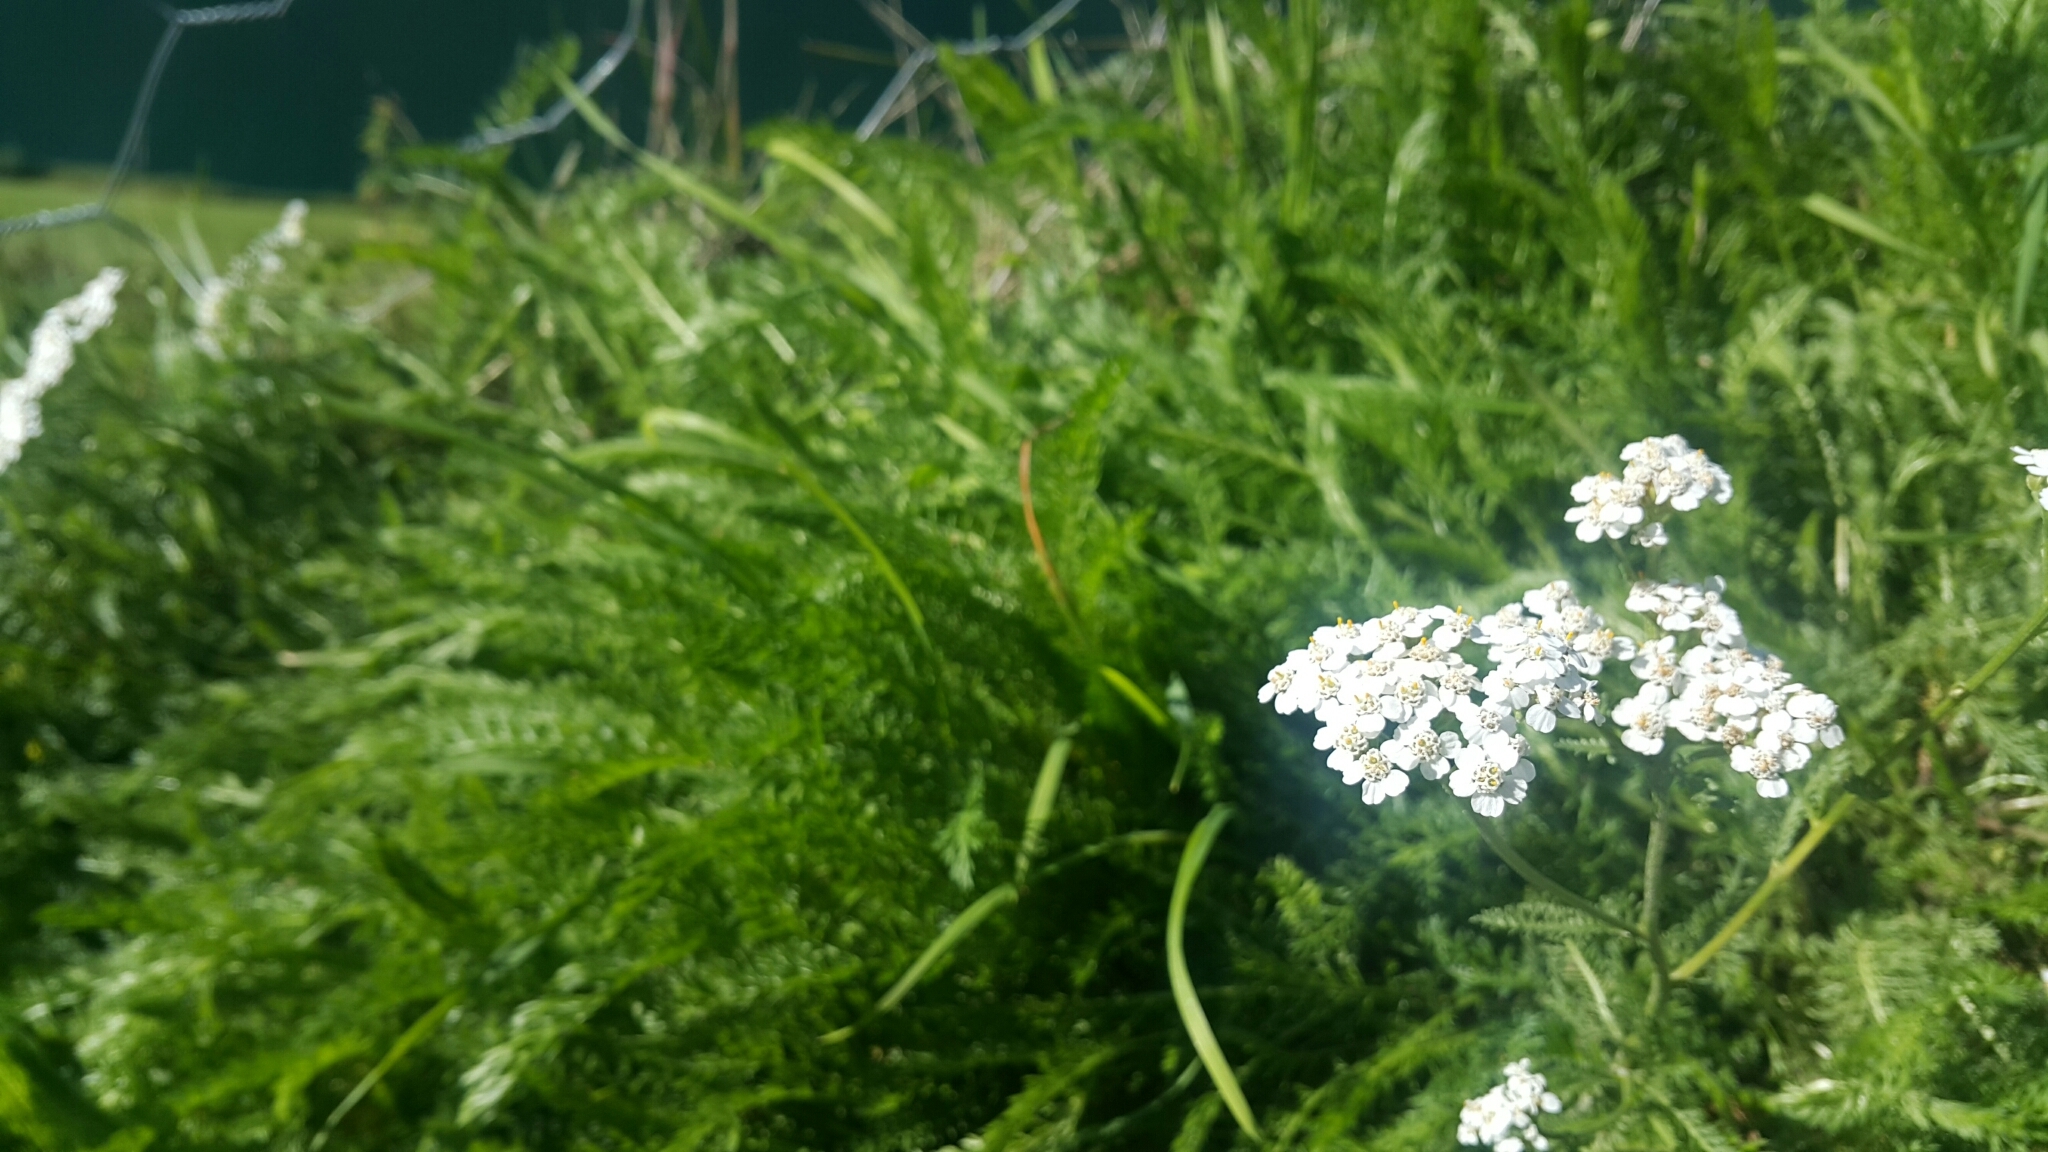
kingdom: Plantae
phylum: Tracheophyta
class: Magnoliopsida
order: Asterales
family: Asteraceae
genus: Achillea
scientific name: Achillea millefolium
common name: Yarrow
